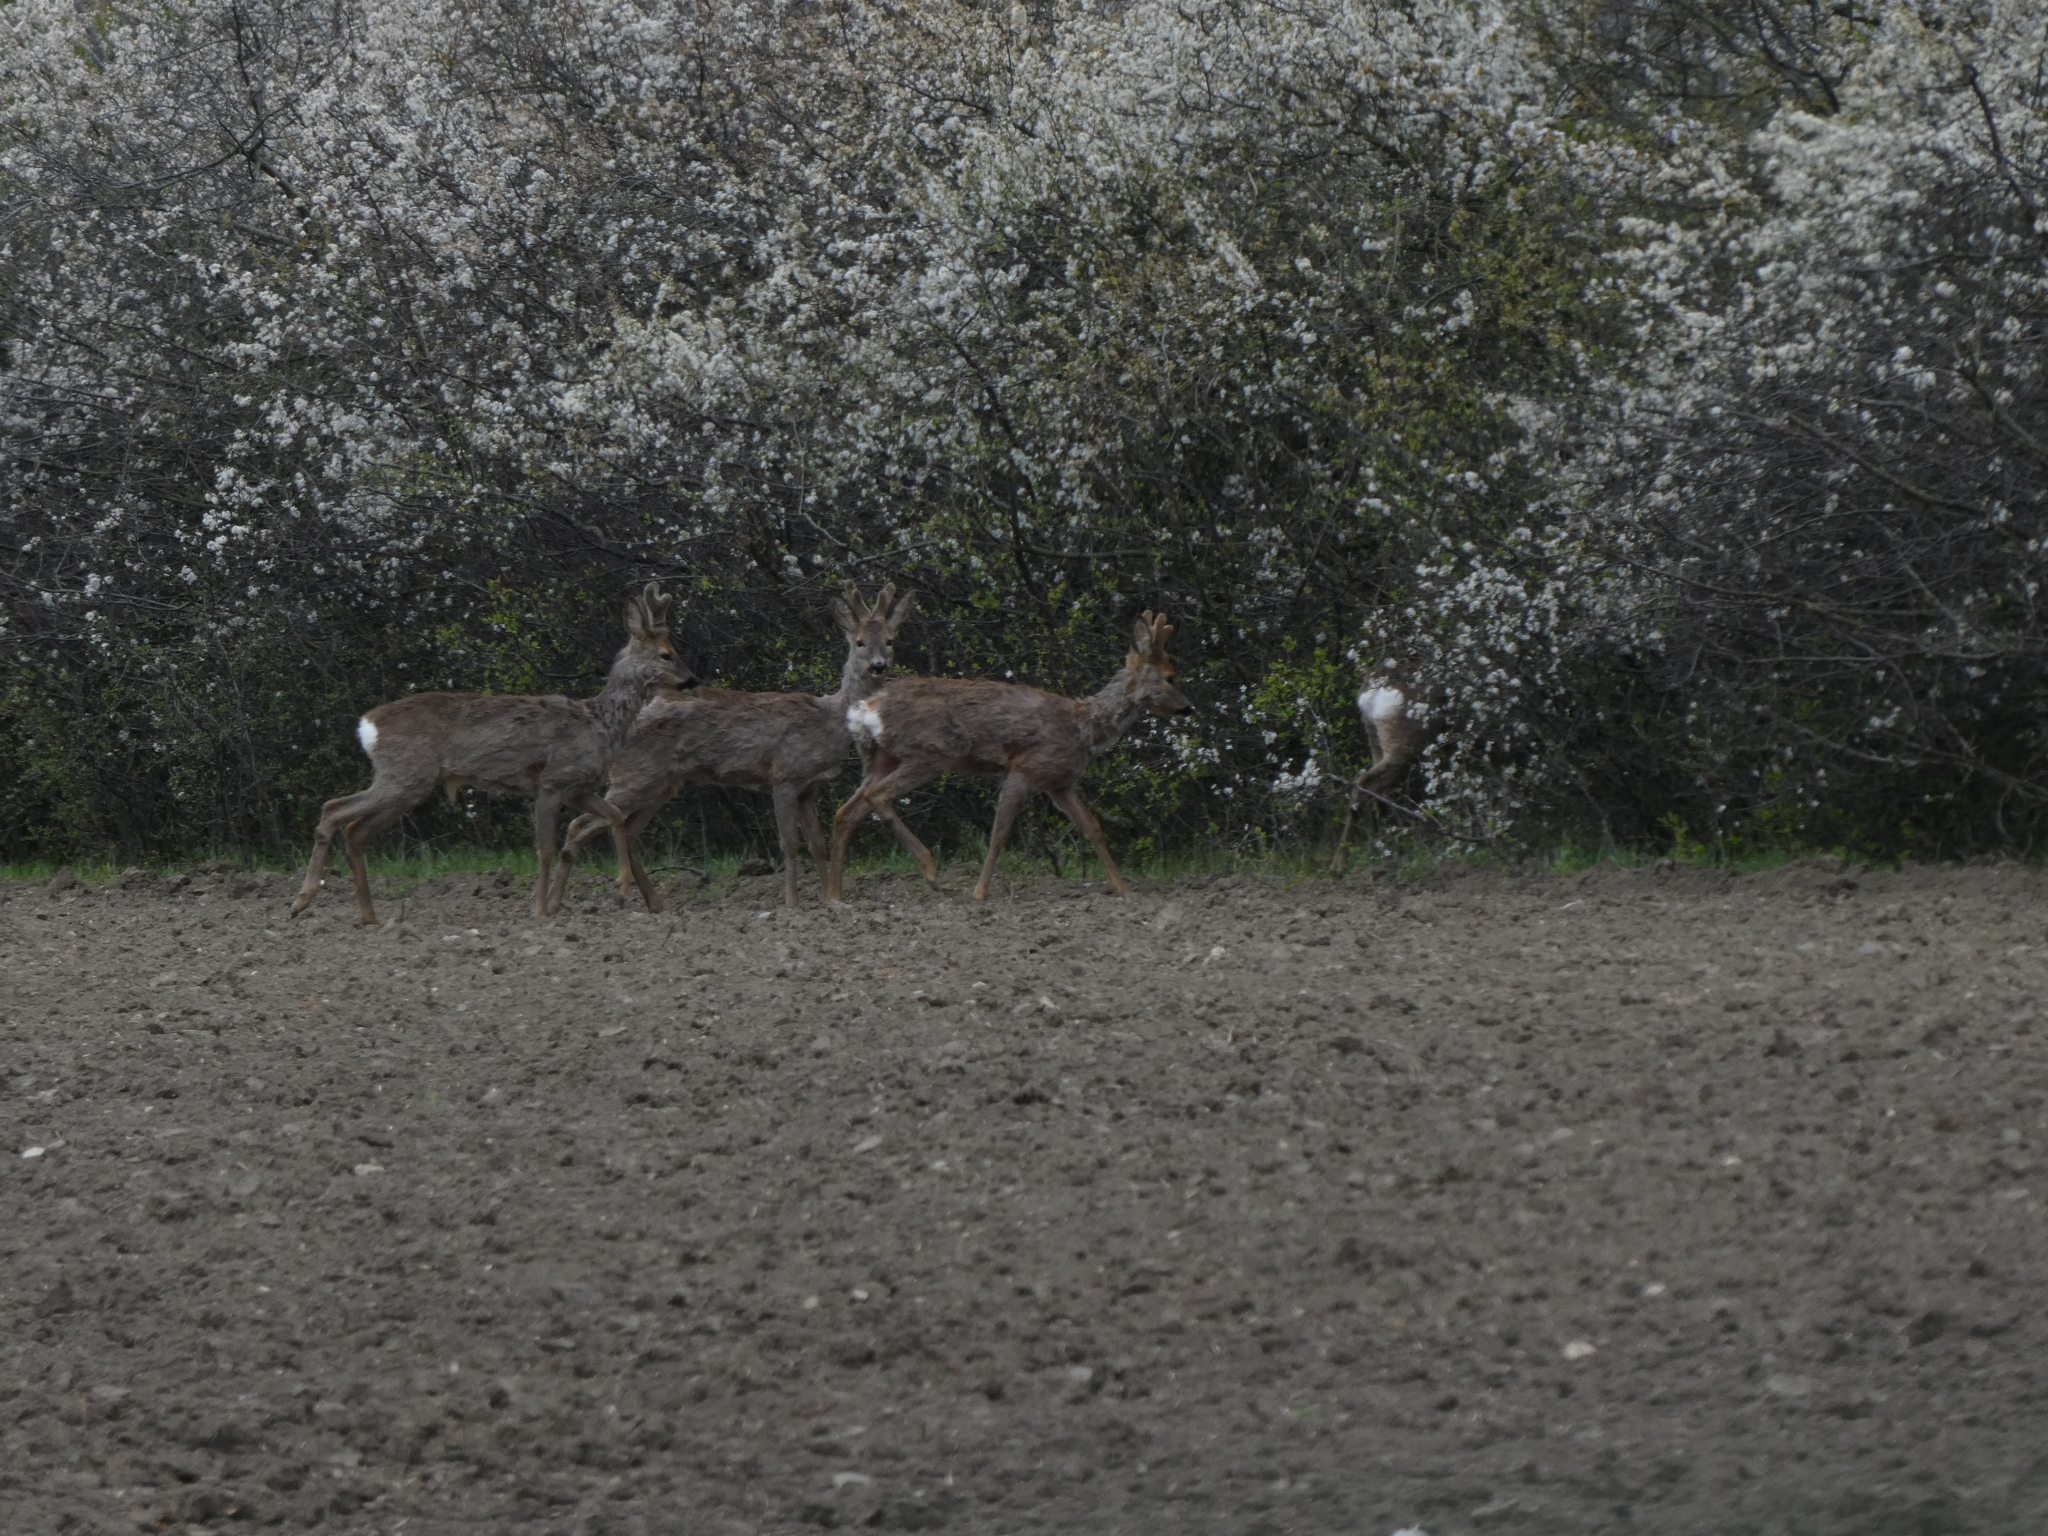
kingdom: Animalia
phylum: Chordata
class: Mammalia
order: Artiodactyla
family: Cervidae
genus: Capreolus
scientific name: Capreolus capreolus
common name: Western roe deer
